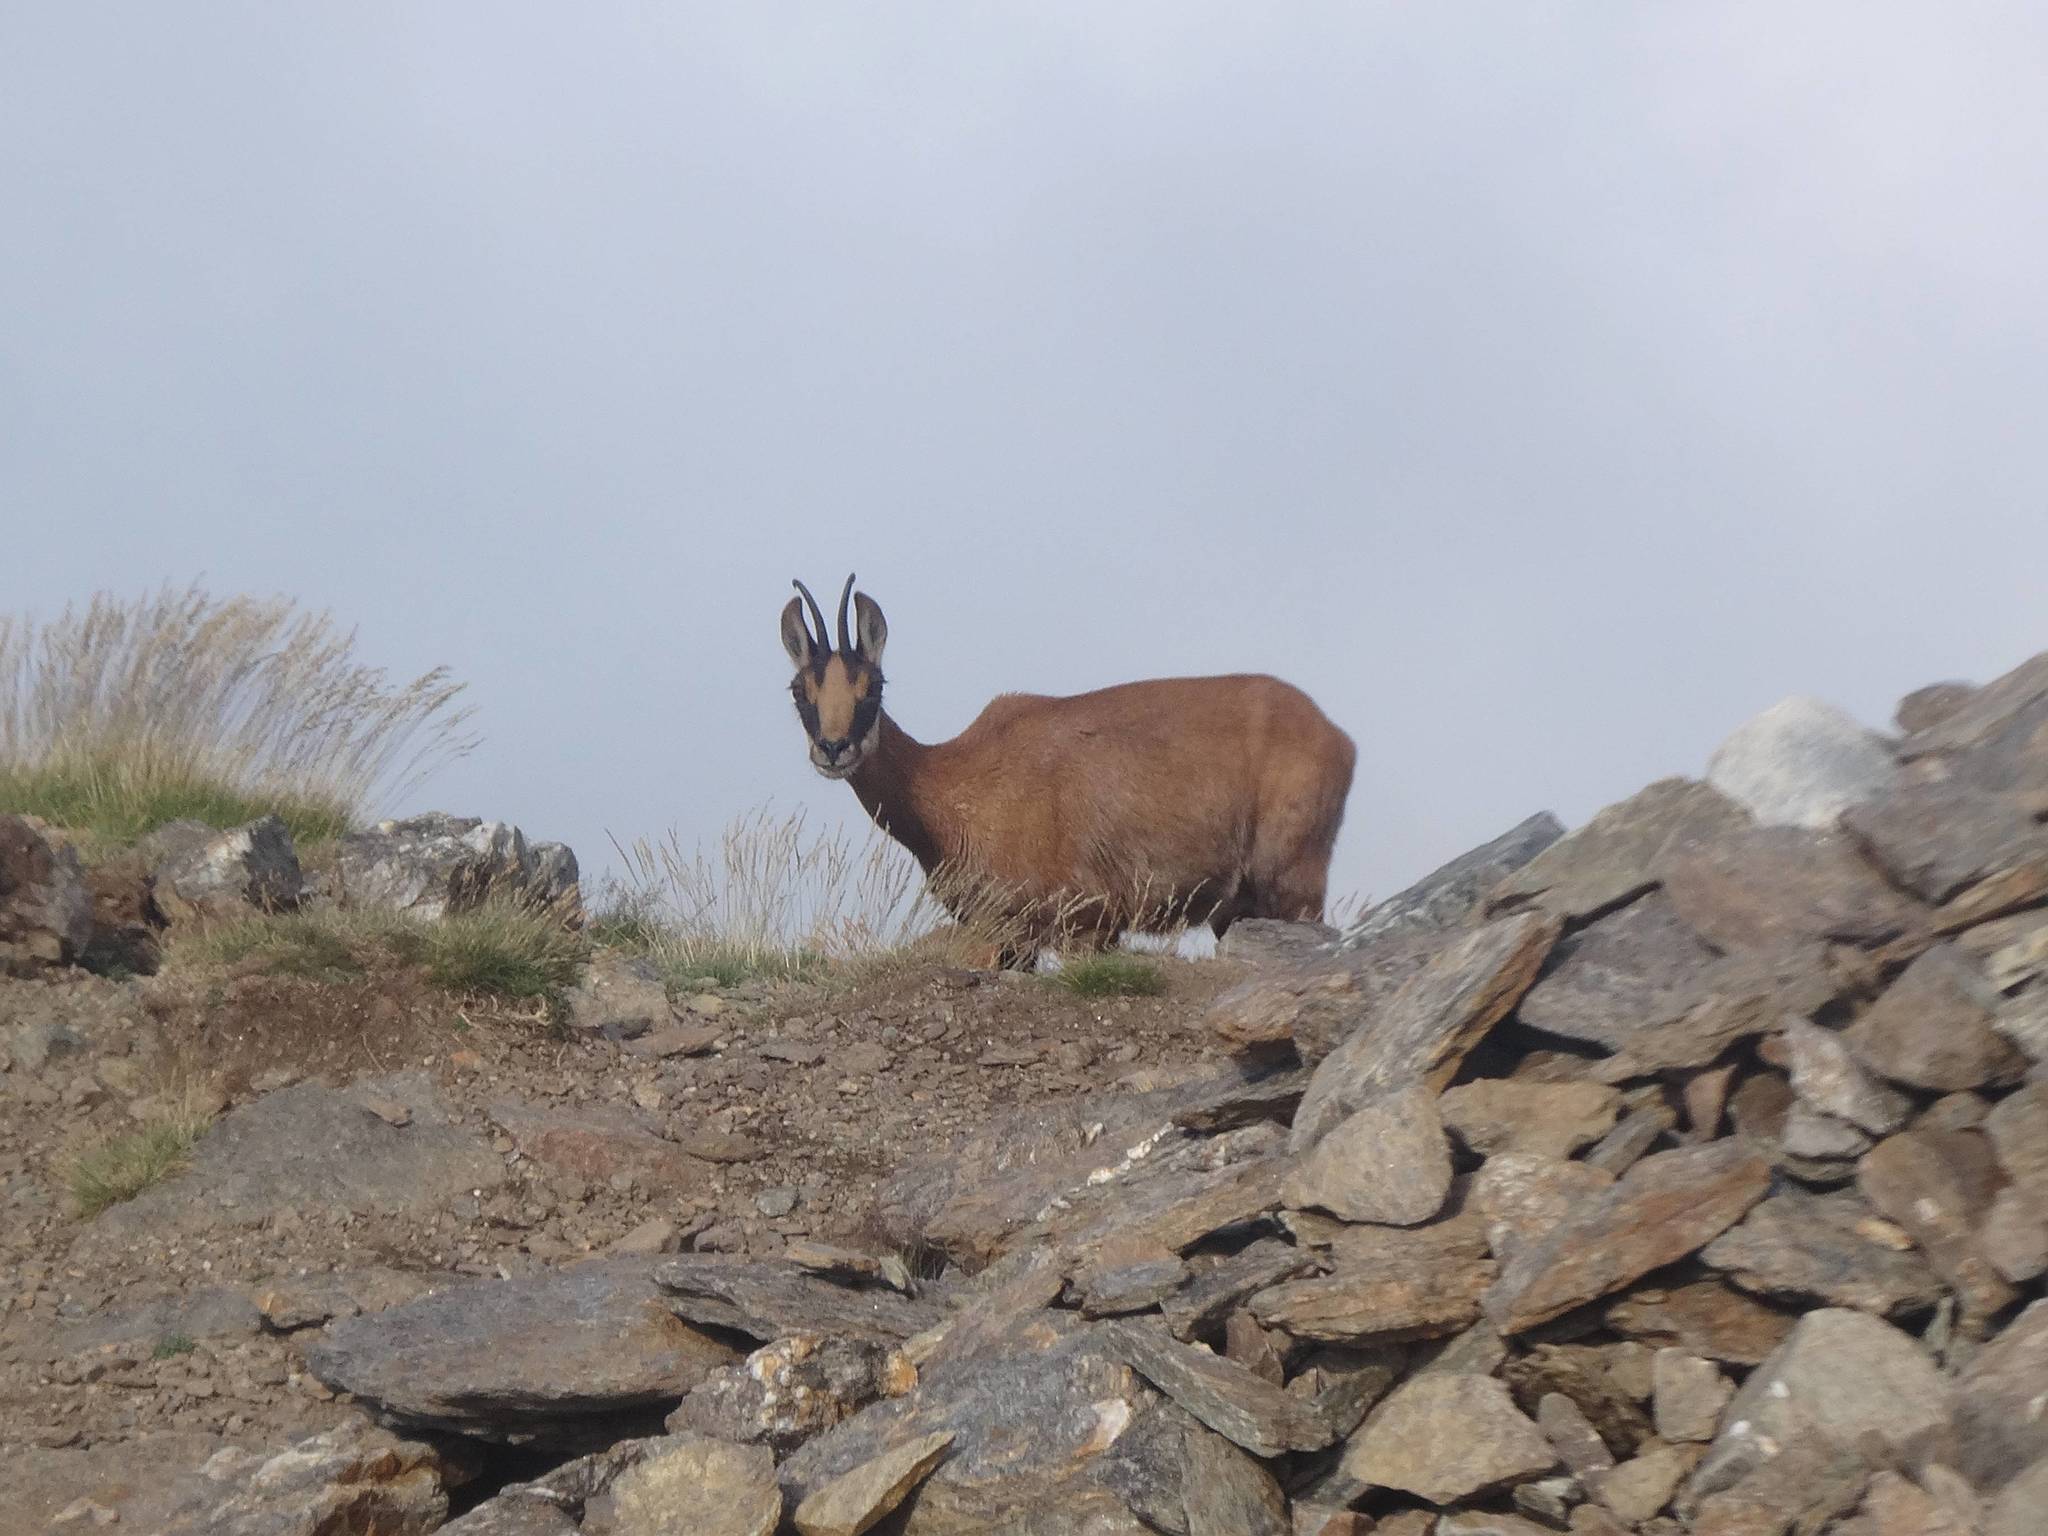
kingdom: Animalia
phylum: Chordata
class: Mammalia
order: Artiodactyla
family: Bovidae
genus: Rupicapra
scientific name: Rupicapra pyrenaica
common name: Pyrenean chamois
